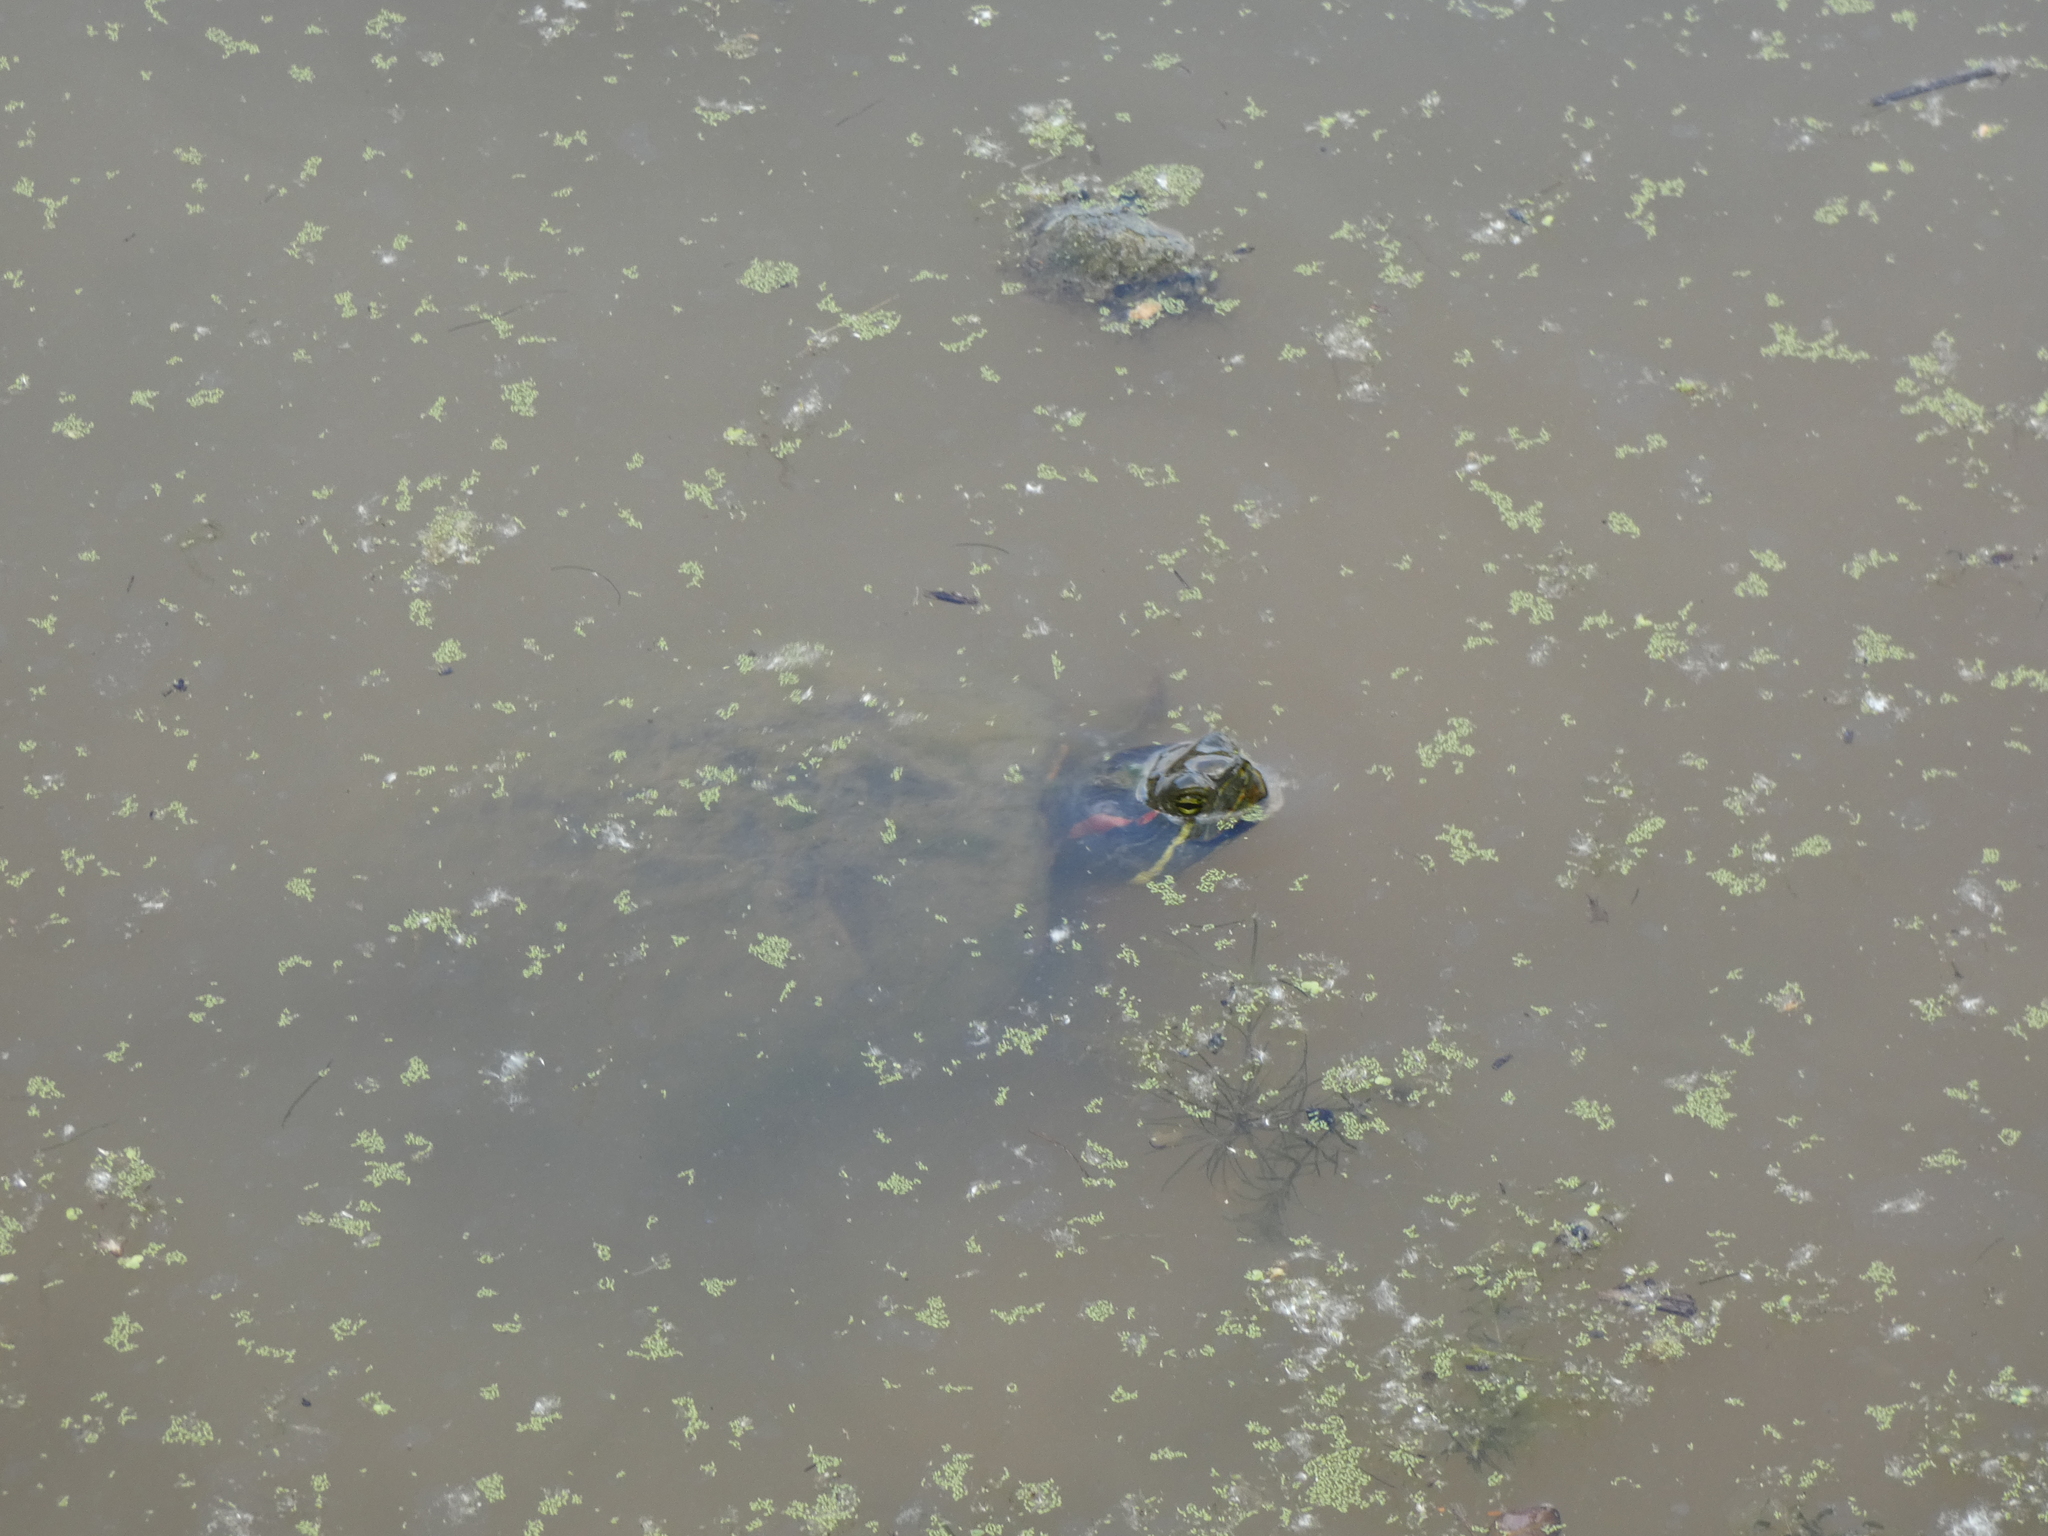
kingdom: Animalia
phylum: Chordata
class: Testudines
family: Emydidae
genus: Trachemys
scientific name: Trachemys scripta
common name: Slider
